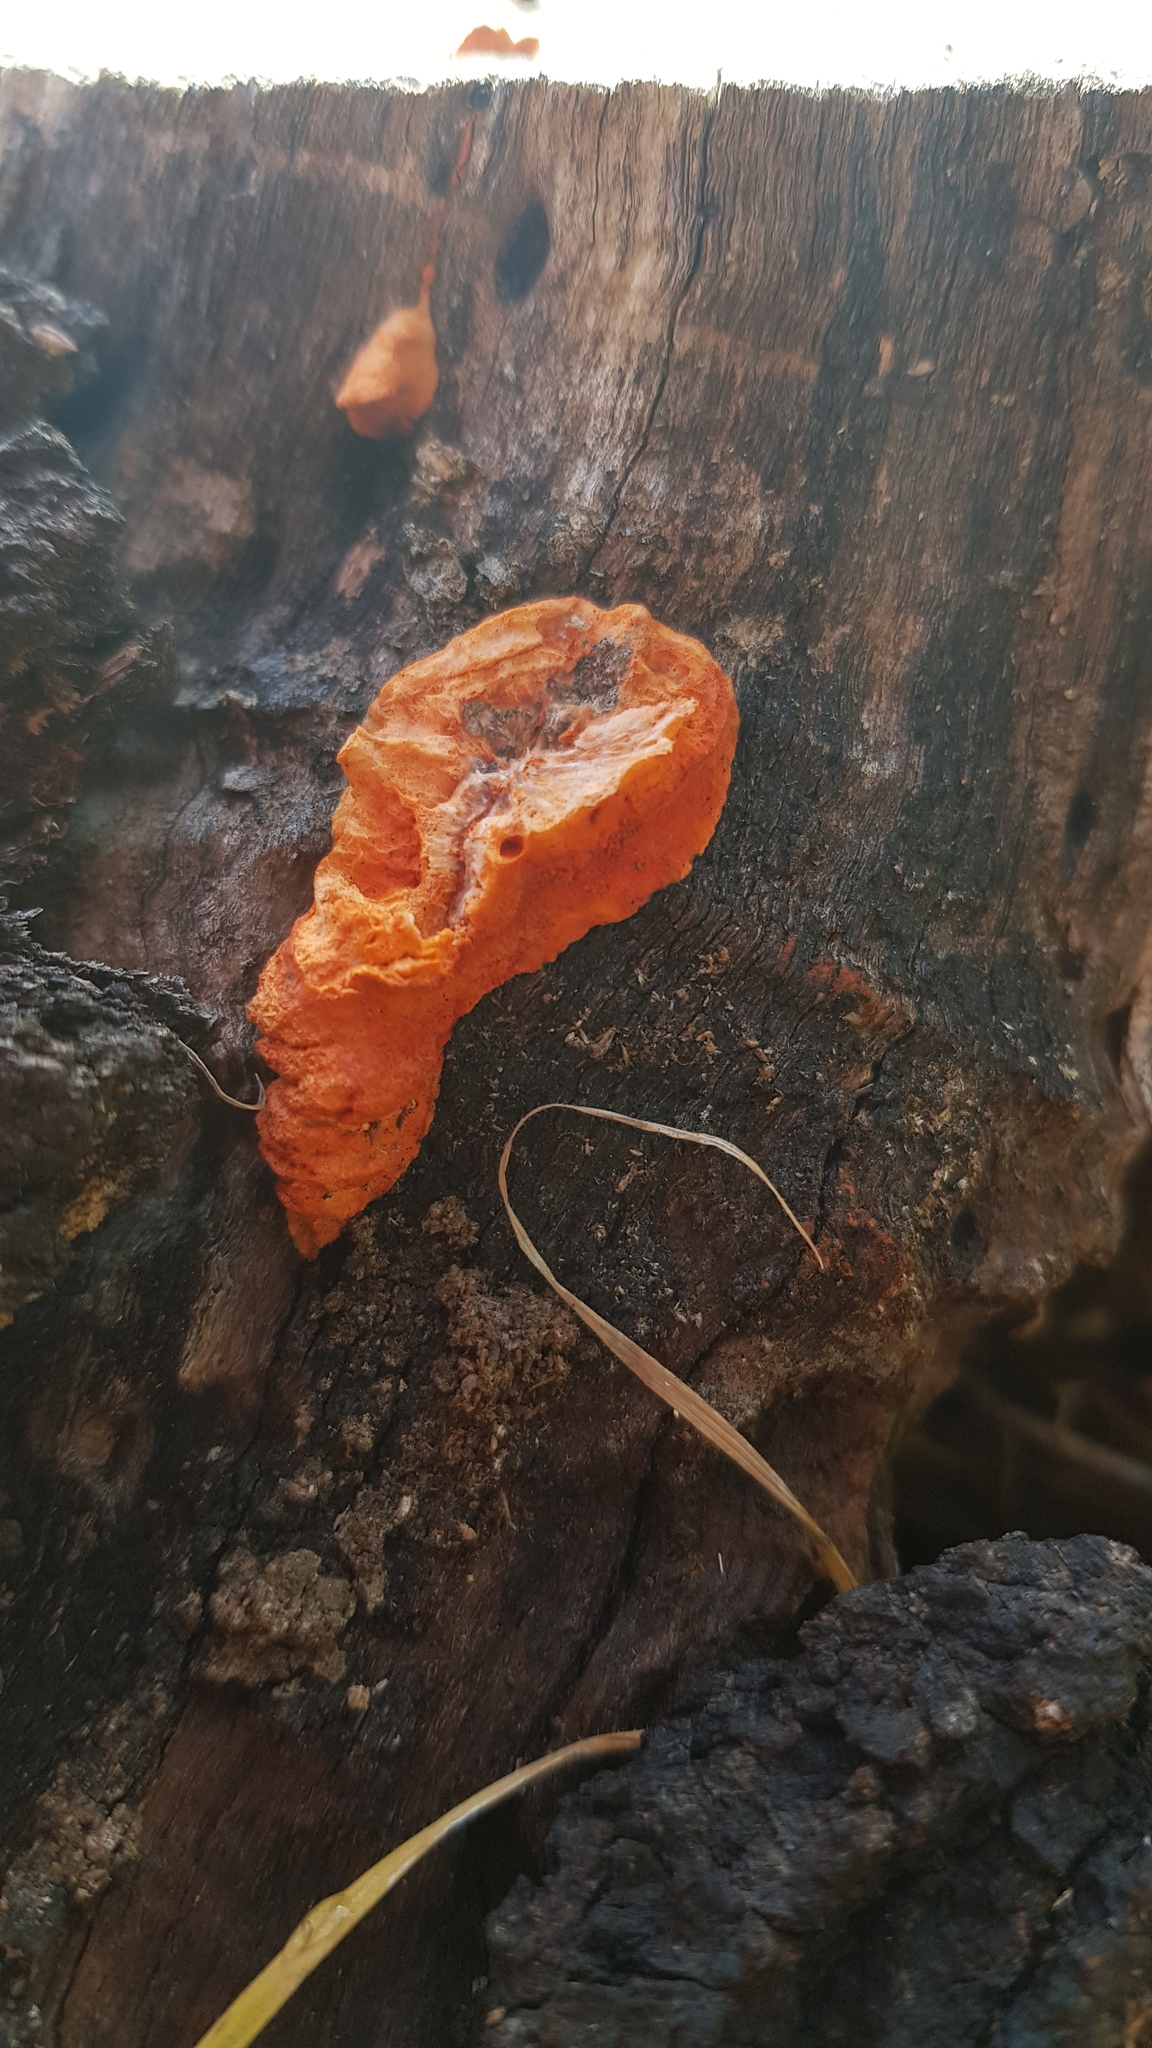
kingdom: Fungi
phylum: Basidiomycota
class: Agaricomycetes
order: Polyporales
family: Polyporaceae
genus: Trametes
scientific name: Trametes coccinea
